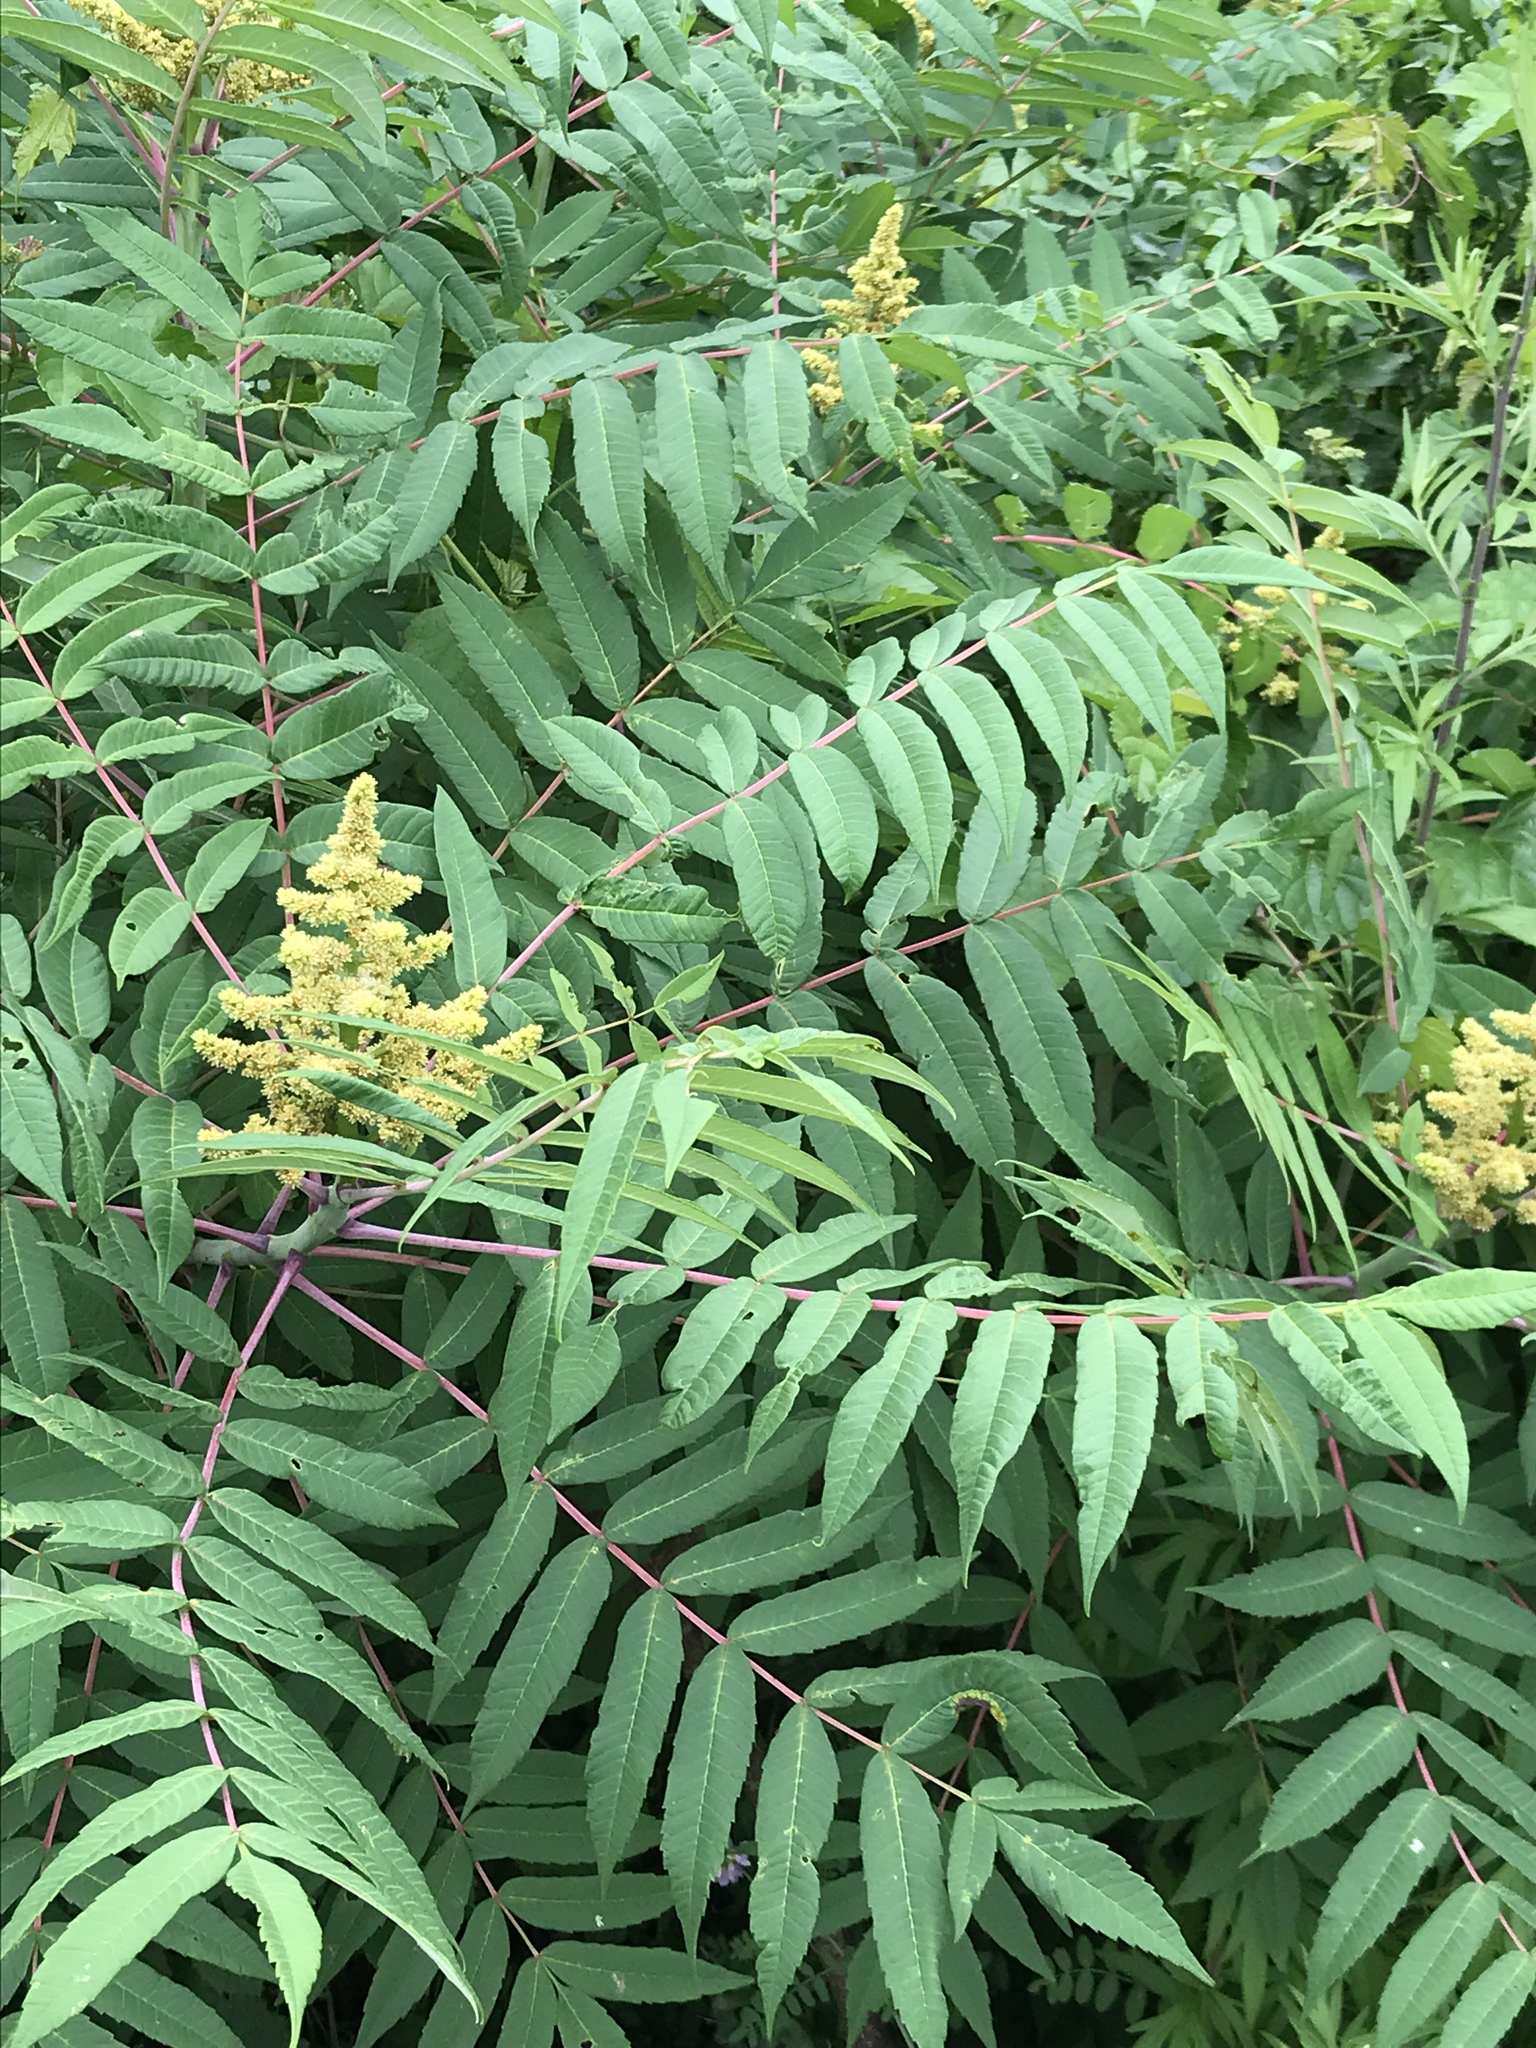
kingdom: Plantae
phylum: Tracheophyta
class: Magnoliopsida
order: Sapindales
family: Anacardiaceae
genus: Rhus
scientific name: Rhus glabra
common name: Scarlet sumac
